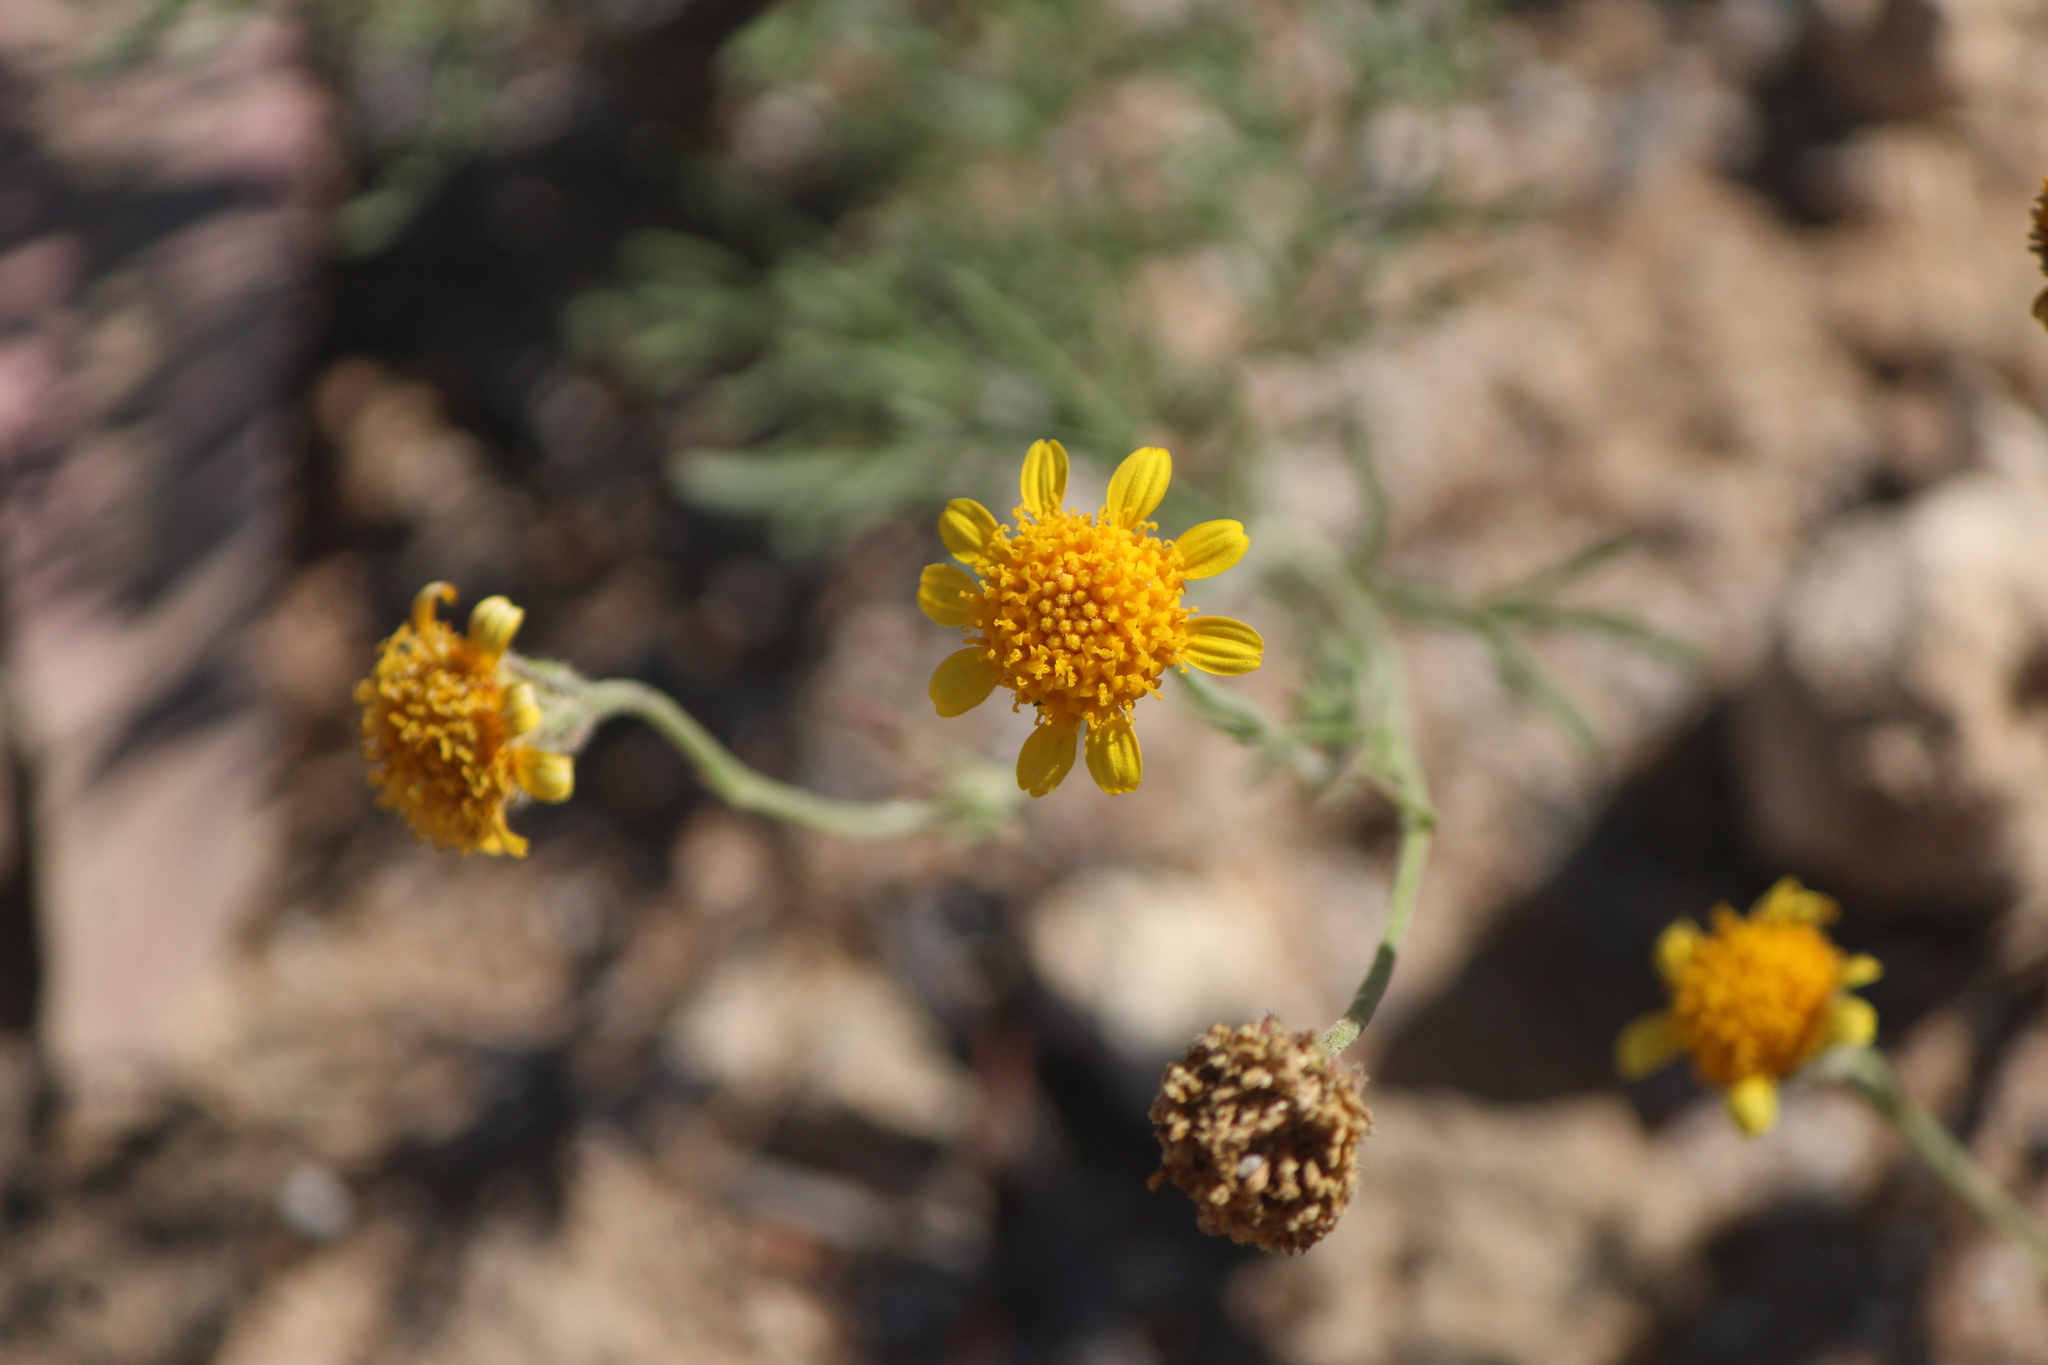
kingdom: Plantae
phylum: Tracheophyta
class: Magnoliopsida
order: Asterales
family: Asteraceae
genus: Picradeniopsis
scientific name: Picradeniopsis pringlei
